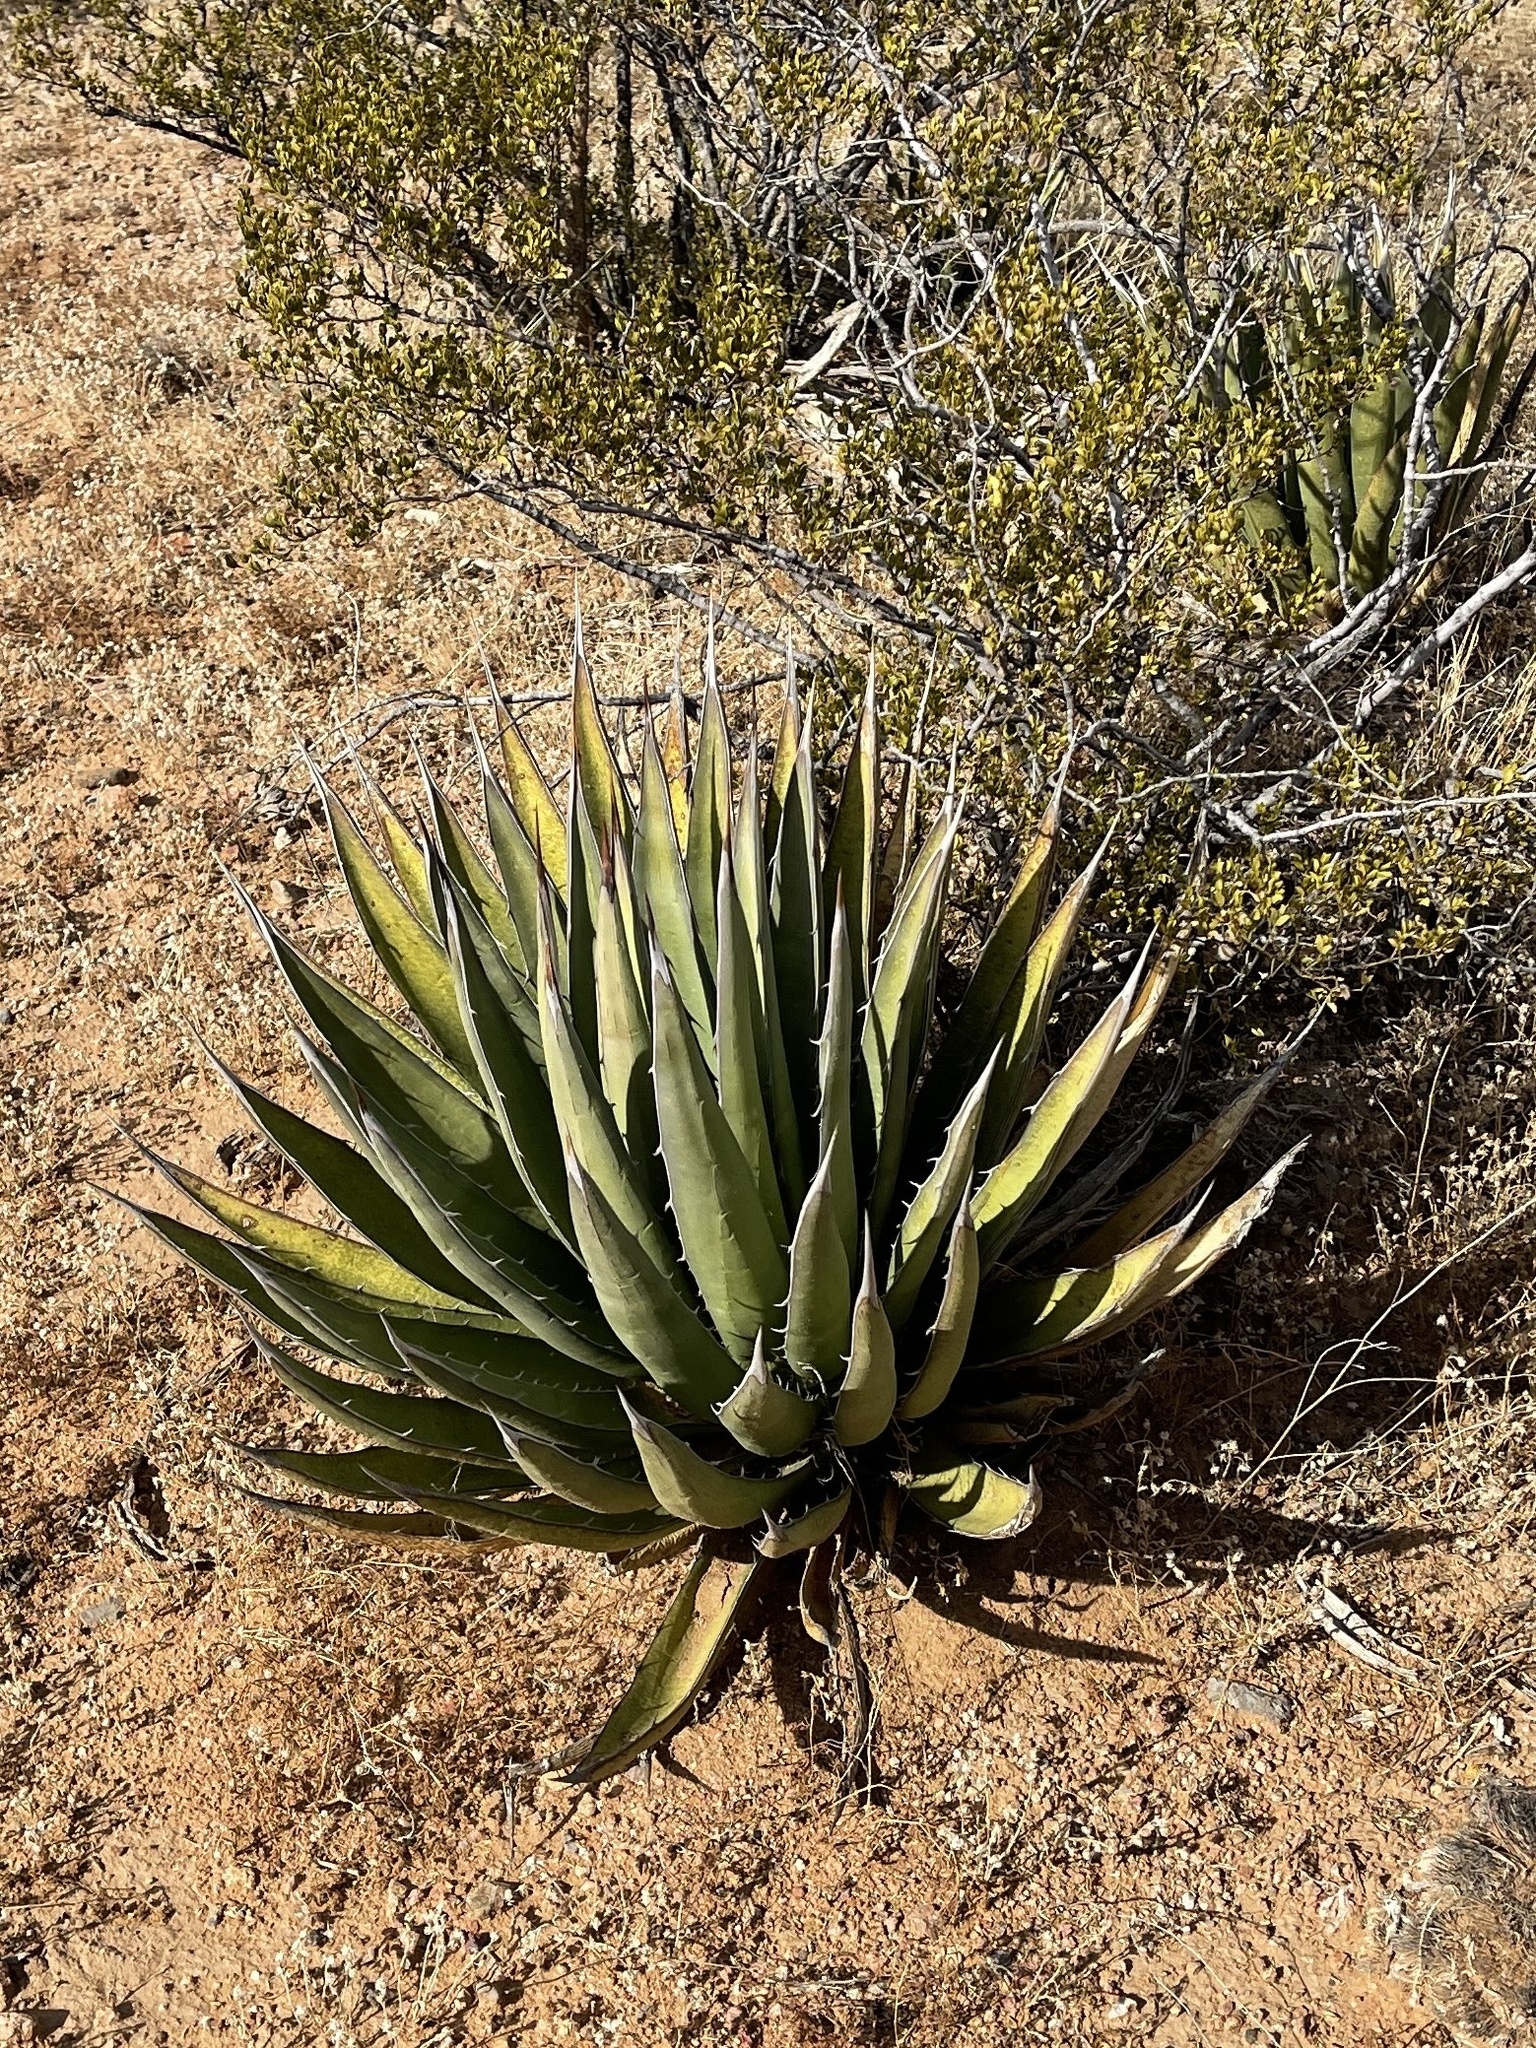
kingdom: Plantae
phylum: Tracheophyta
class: Liliopsida
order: Asparagales
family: Asparagaceae
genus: Agave
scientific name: Agave lechuguilla
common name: Lecheguilla agave
